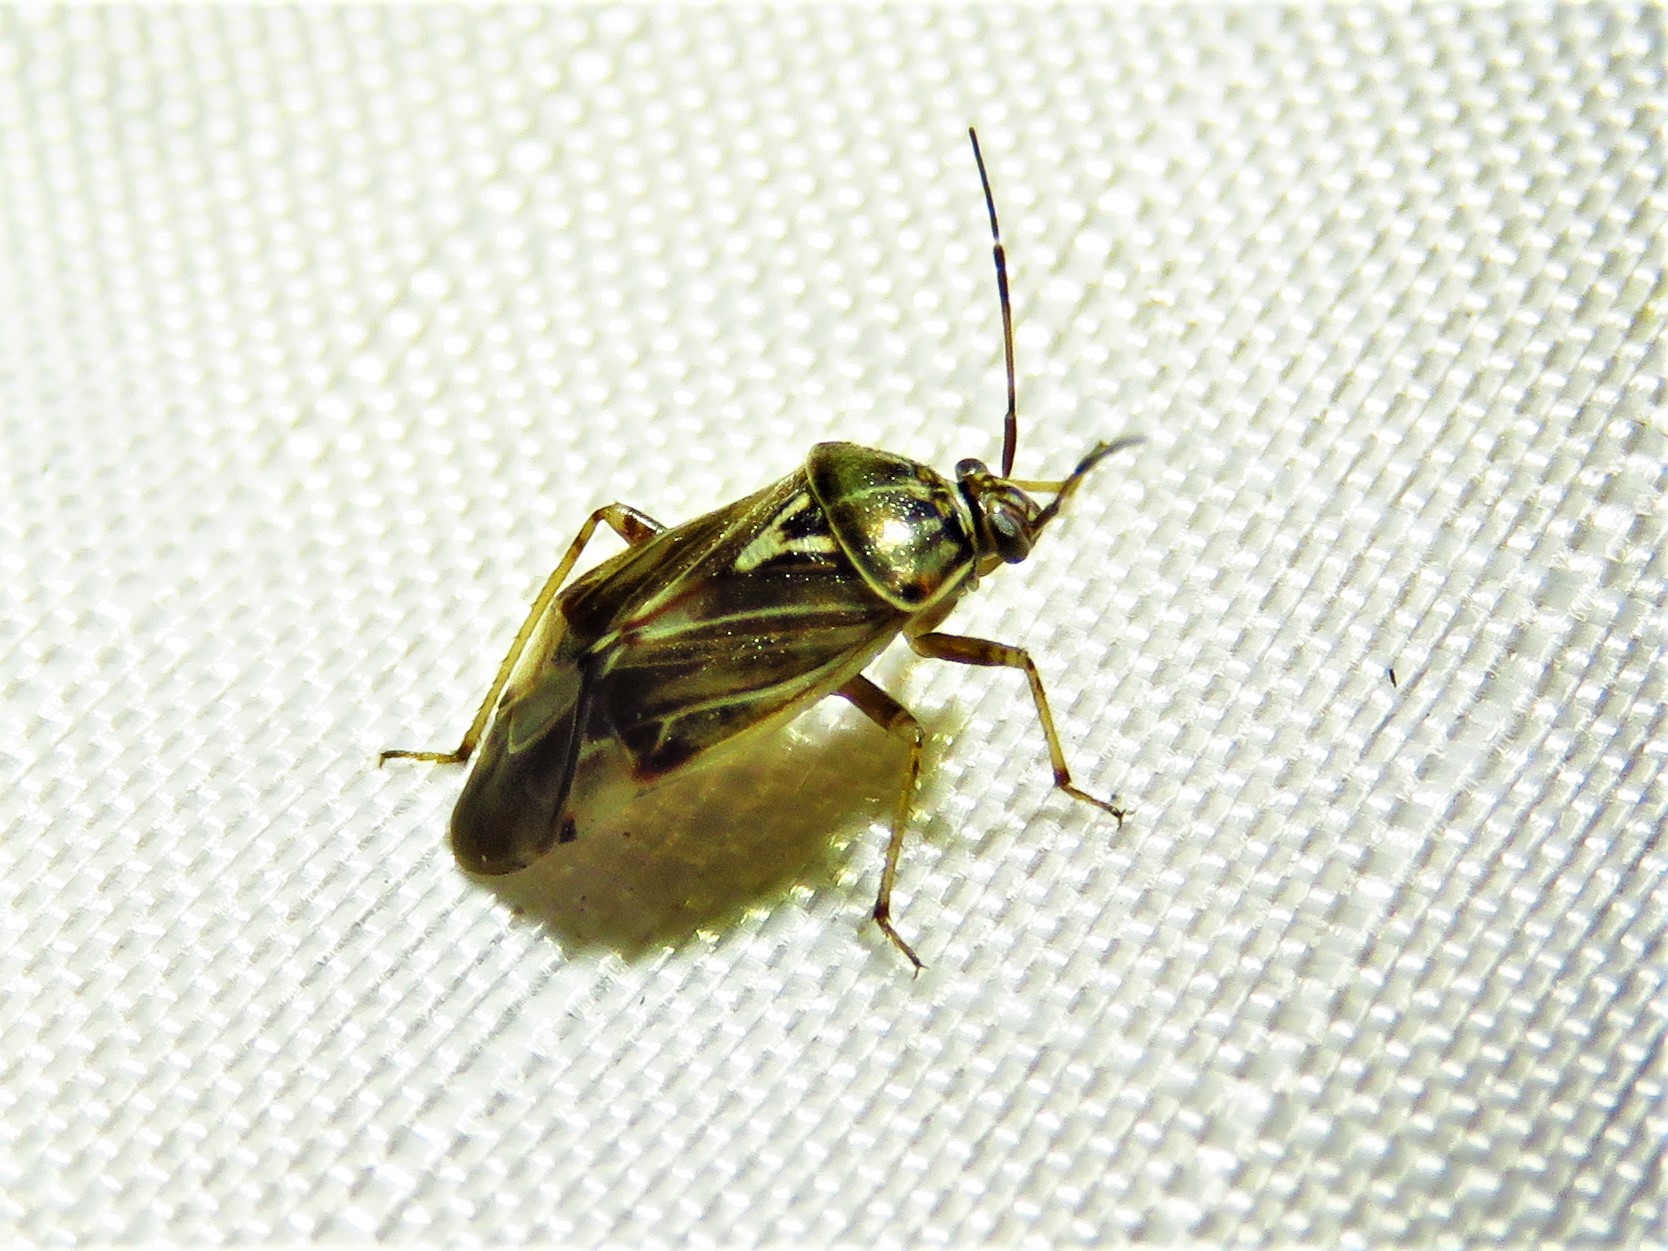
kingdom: Animalia
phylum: Arthropoda
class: Insecta
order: Hemiptera
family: Miridae
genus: Lygus
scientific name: Lygus lineolaris
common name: North american tarnished plant bug
